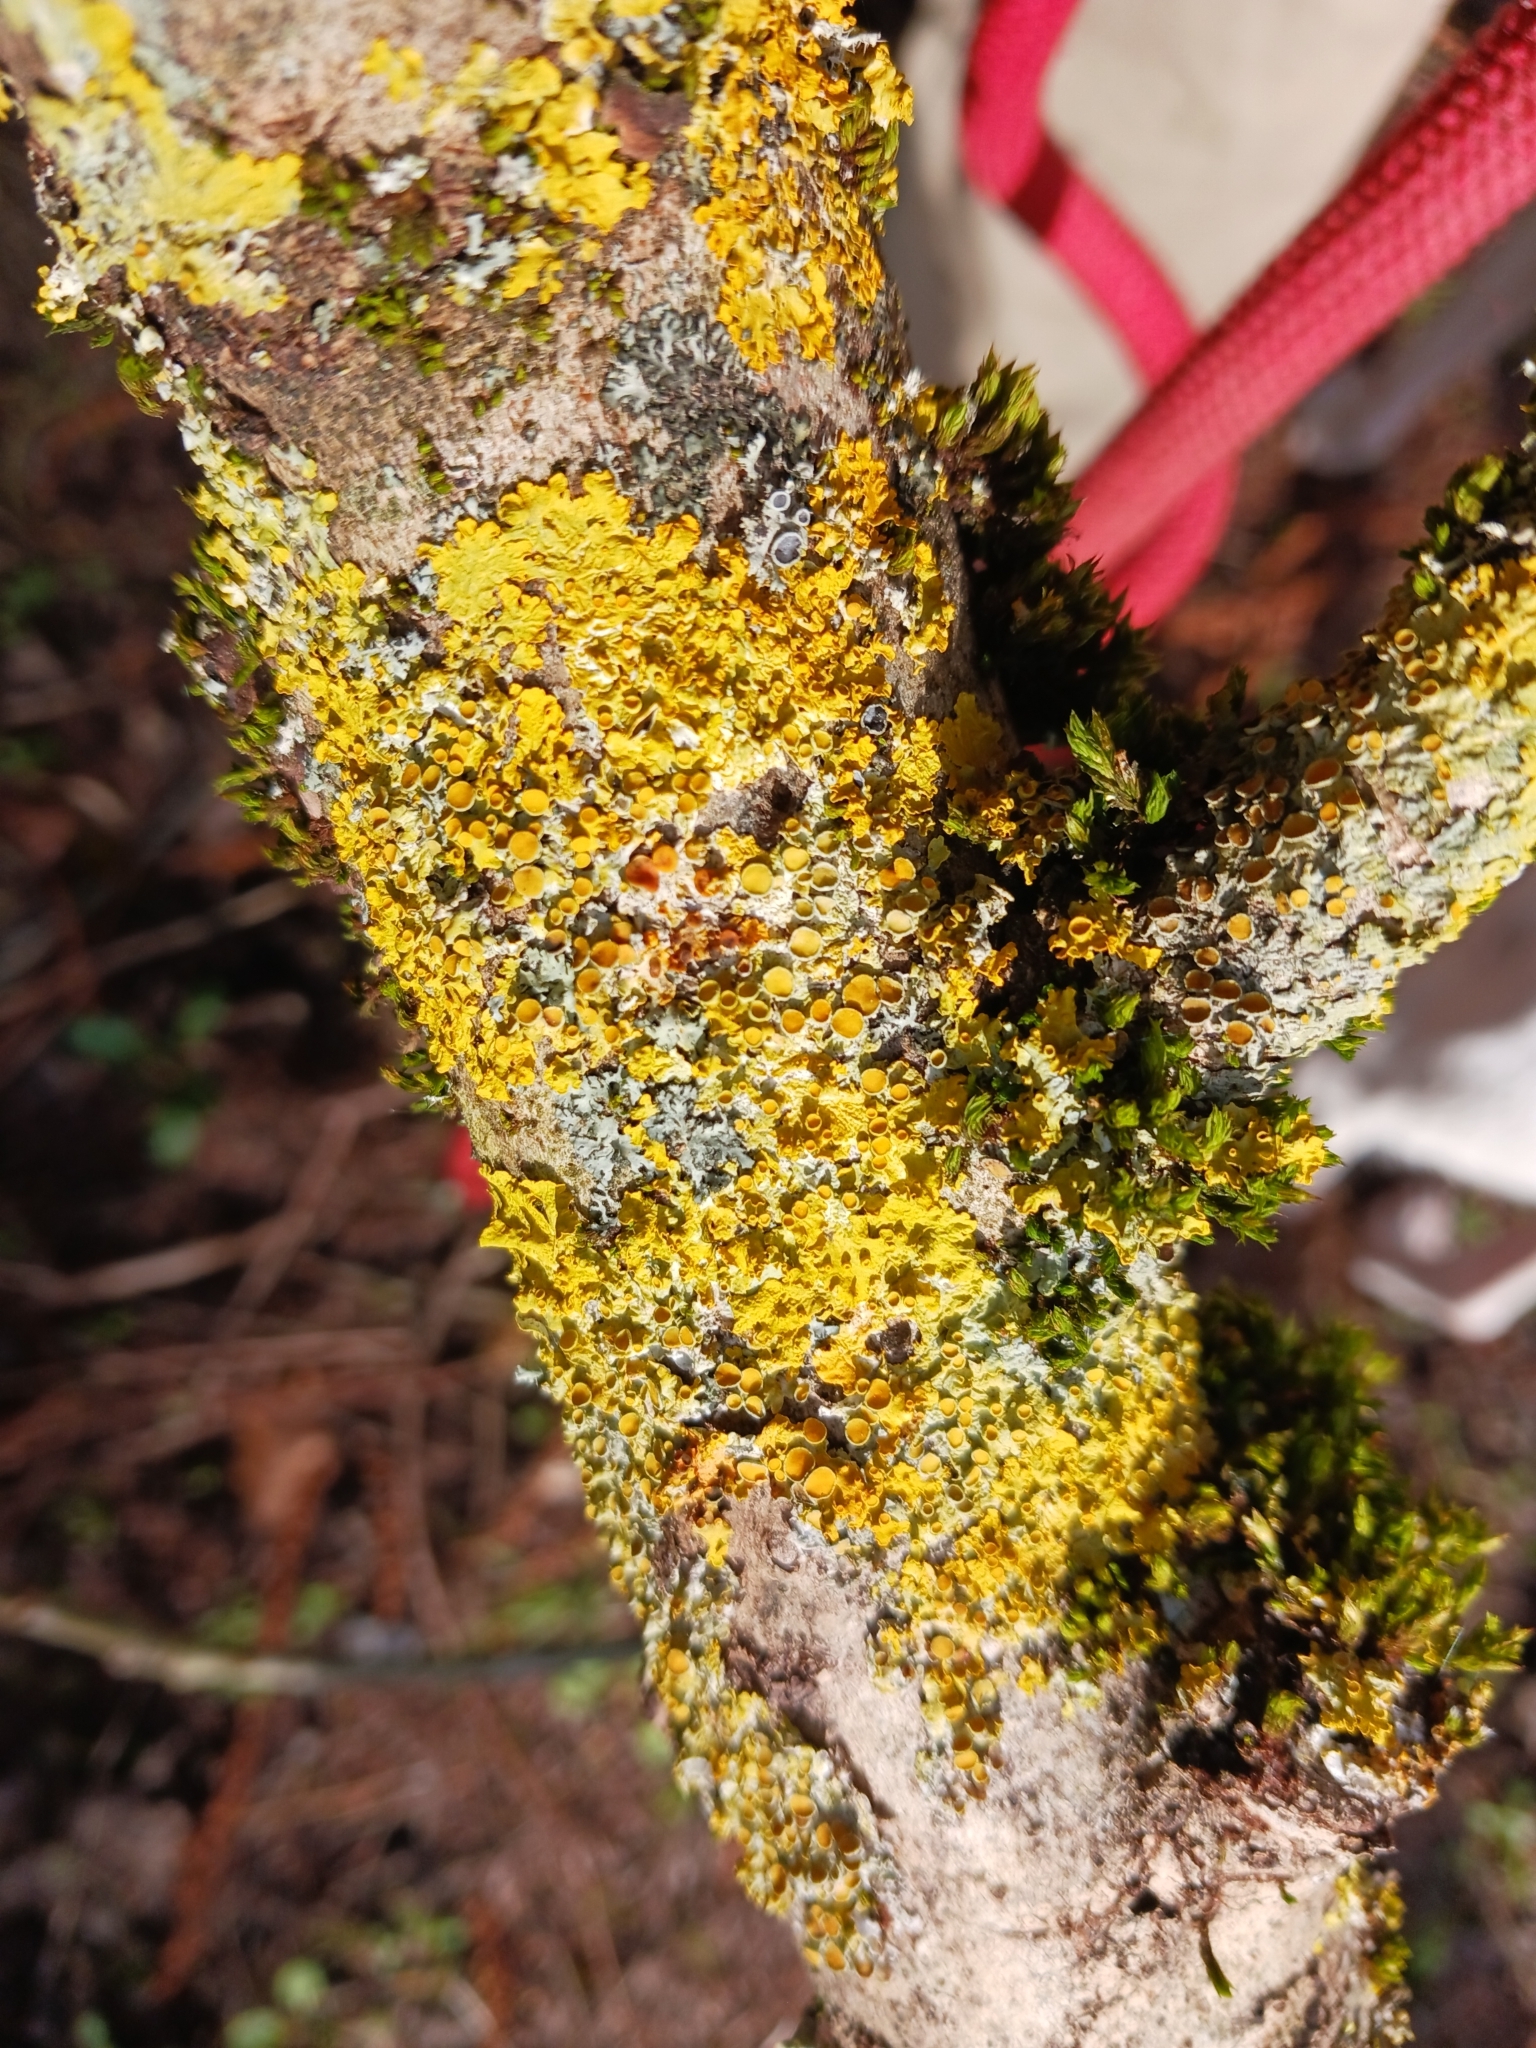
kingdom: Fungi
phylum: Ascomycota
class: Lecanoromycetes
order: Teloschistales
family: Teloschistaceae
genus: Xanthoria
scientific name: Xanthoria parietina
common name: Common orange lichen
